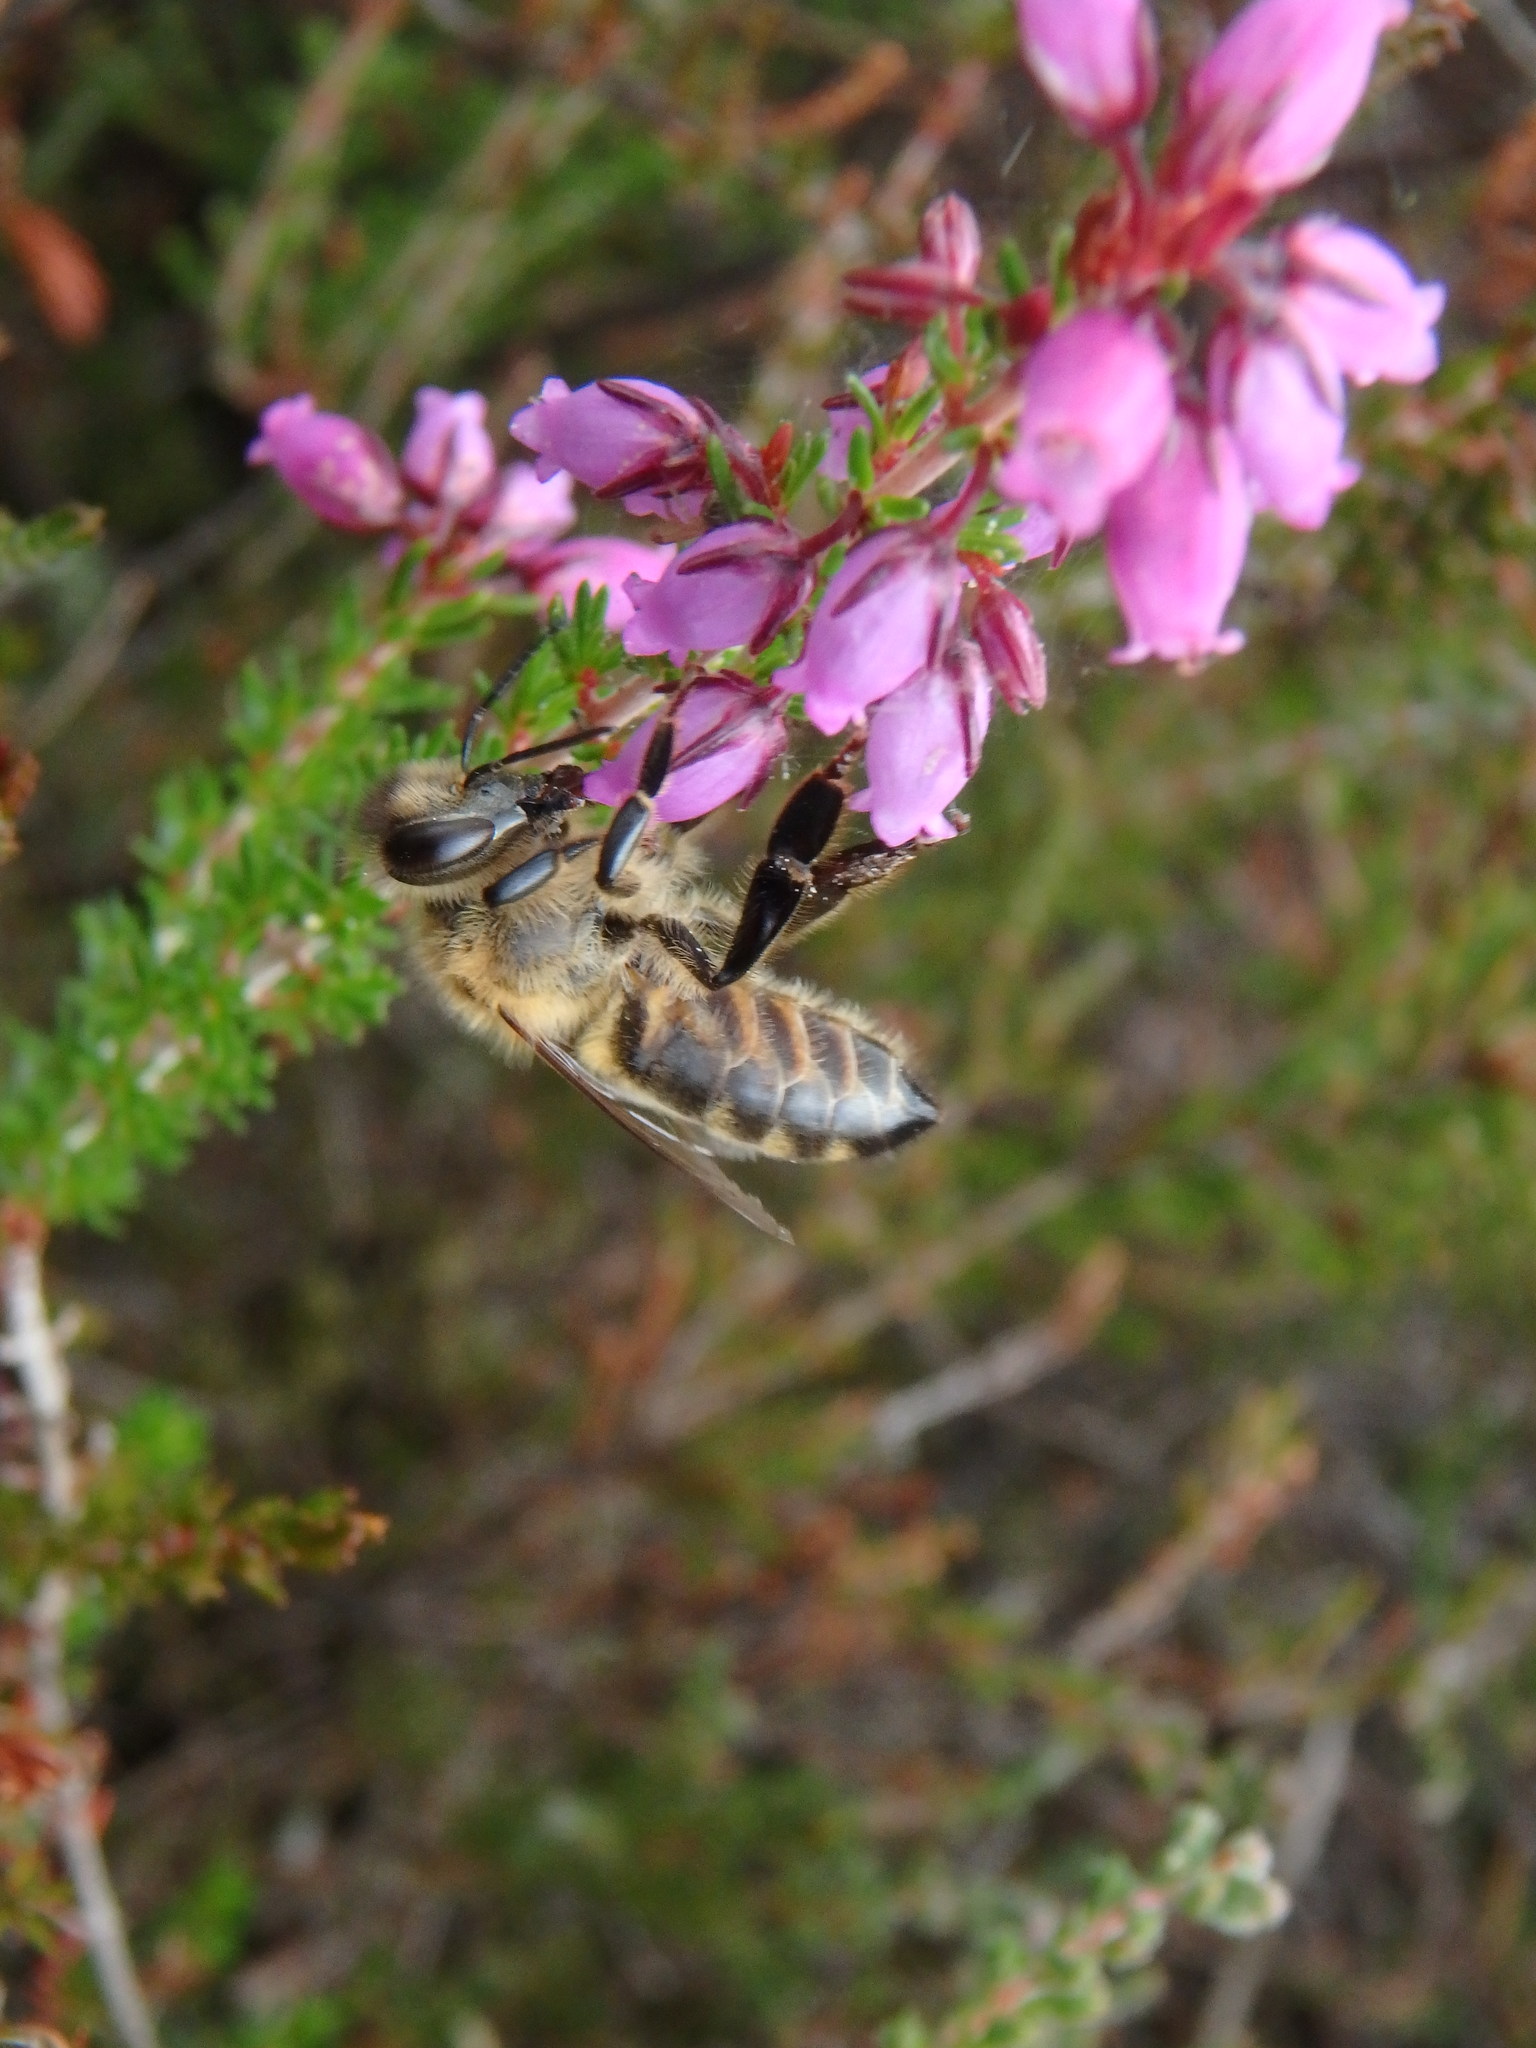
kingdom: Animalia
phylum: Arthropoda
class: Insecta
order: Hymenoptera
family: Apidae
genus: Apis
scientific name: Apis mellifera
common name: Honey bee
